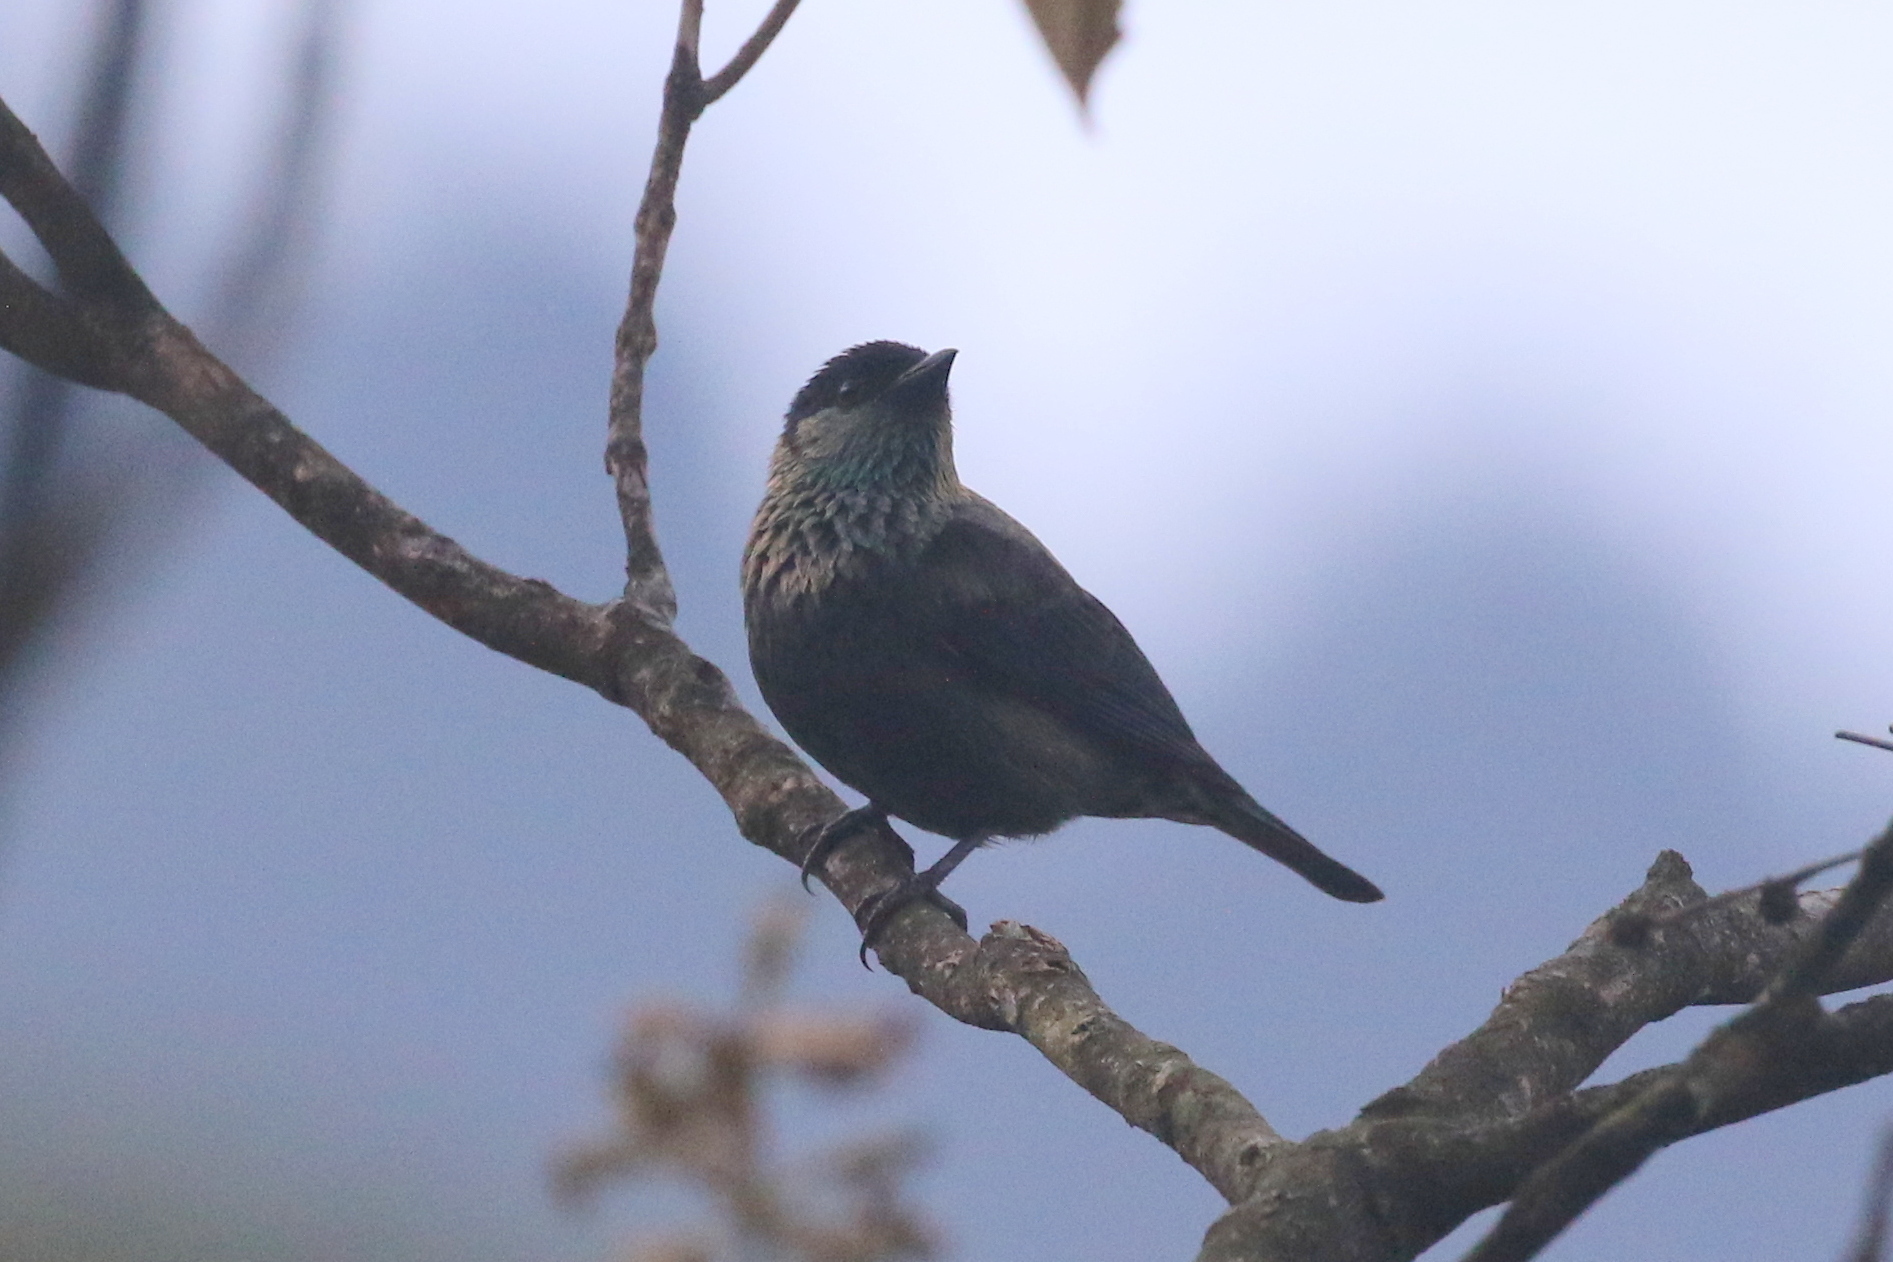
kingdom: Animalia
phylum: Chordata
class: Aves
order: Passeriformes
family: Thraupidae
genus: Stilpnia
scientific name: Stilpnia heinei
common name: Black-capped tanager
